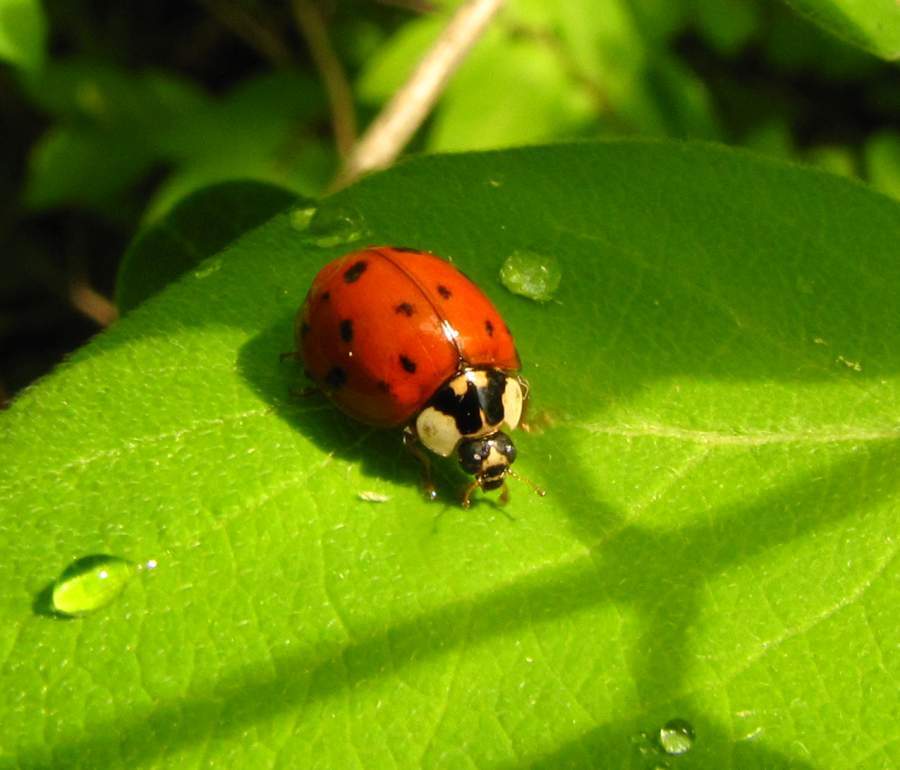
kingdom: Animalia
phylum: Arthropoda
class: Insecta
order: Coleoptera
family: Coccinellidae
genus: Harmonia
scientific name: Harmonia axyridis
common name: Harlequin ladybird
